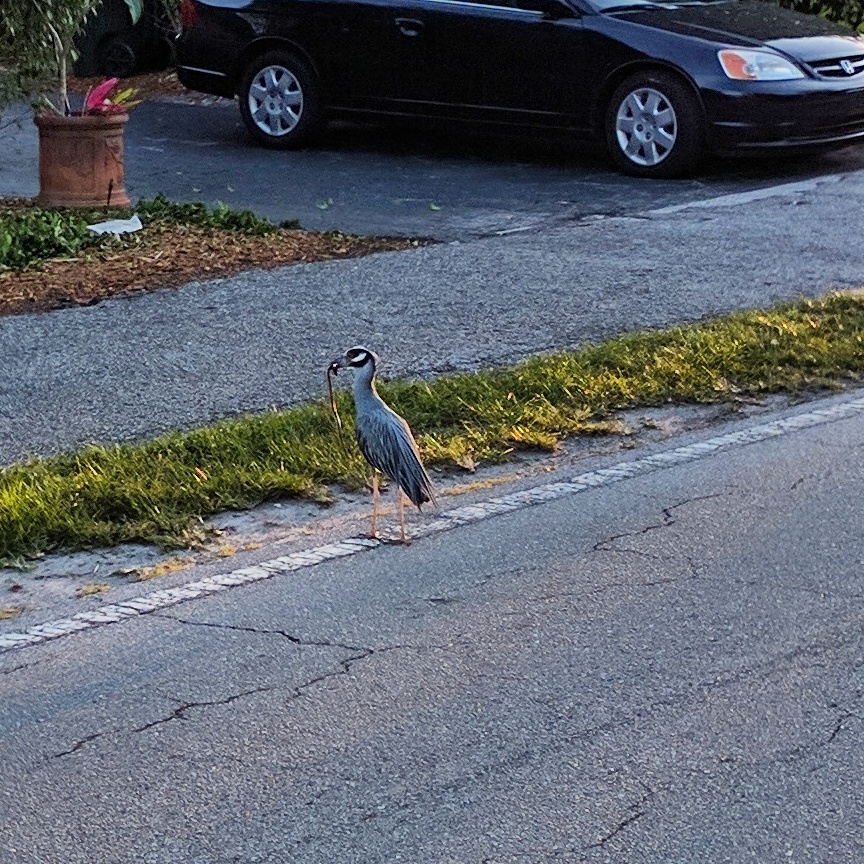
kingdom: Animalia
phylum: Chordata
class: Aves
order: Pelecaniformes
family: Ardeidae
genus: Nyctanassa
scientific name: Nyctanassa violacea
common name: Yellow-crowned night heron
